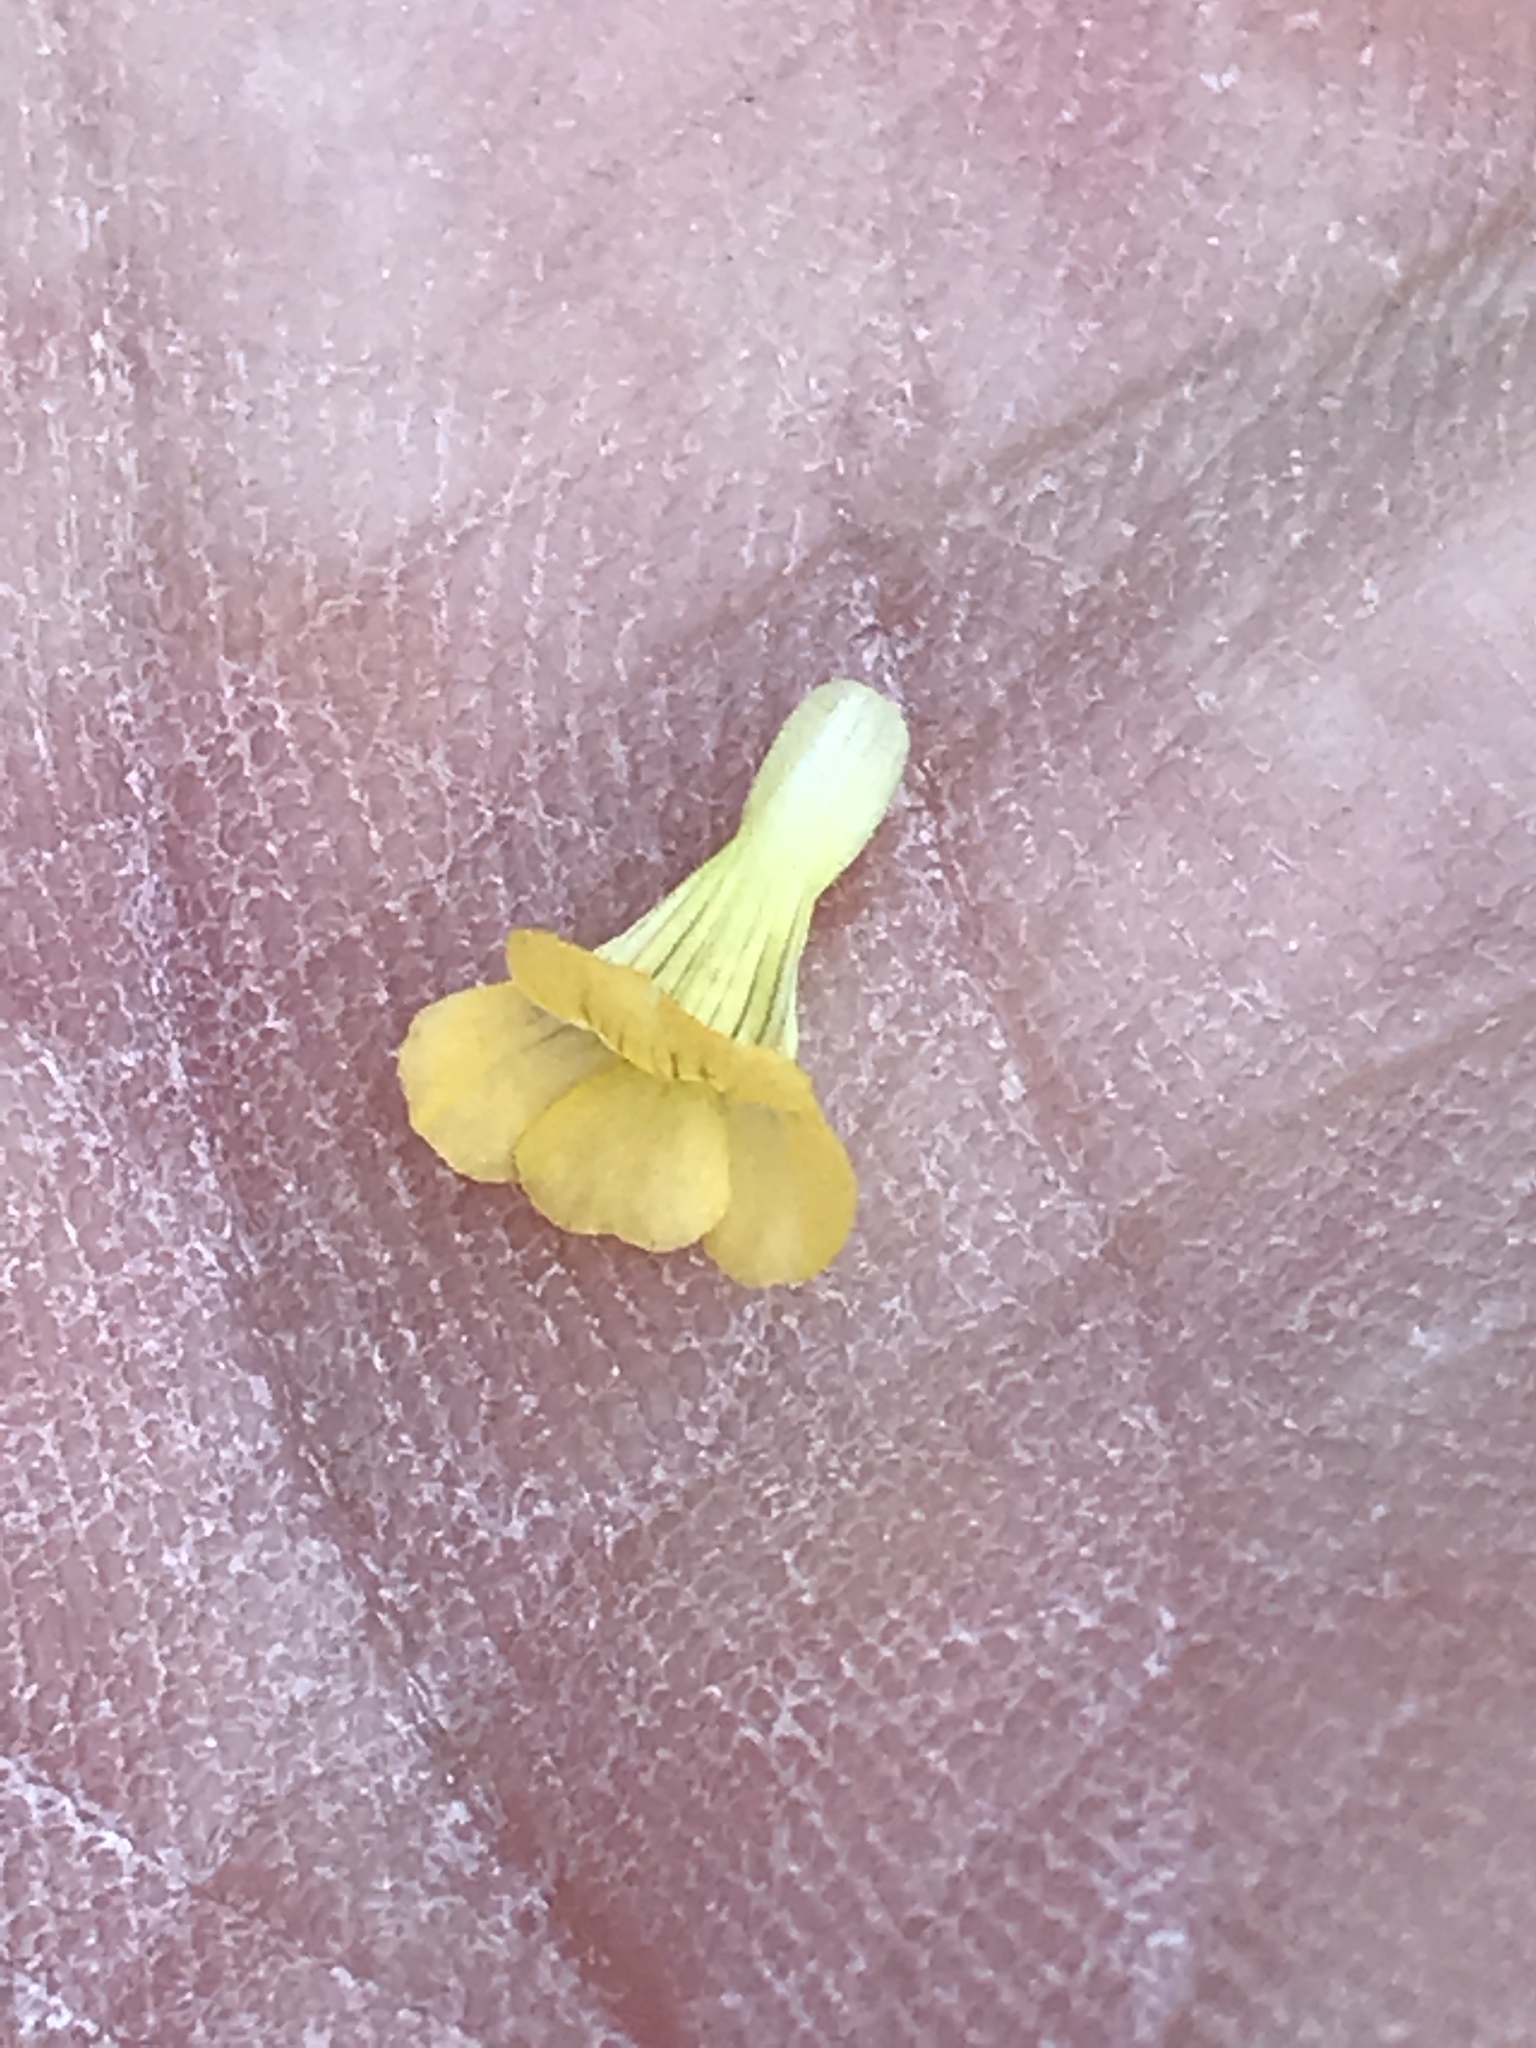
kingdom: Plantae
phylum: Tracheophyta
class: Magnoliopsida
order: Lamiales
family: Plantaginaceae
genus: Mecardonia
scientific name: Mecardonia procumbens
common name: Baby jump-up
